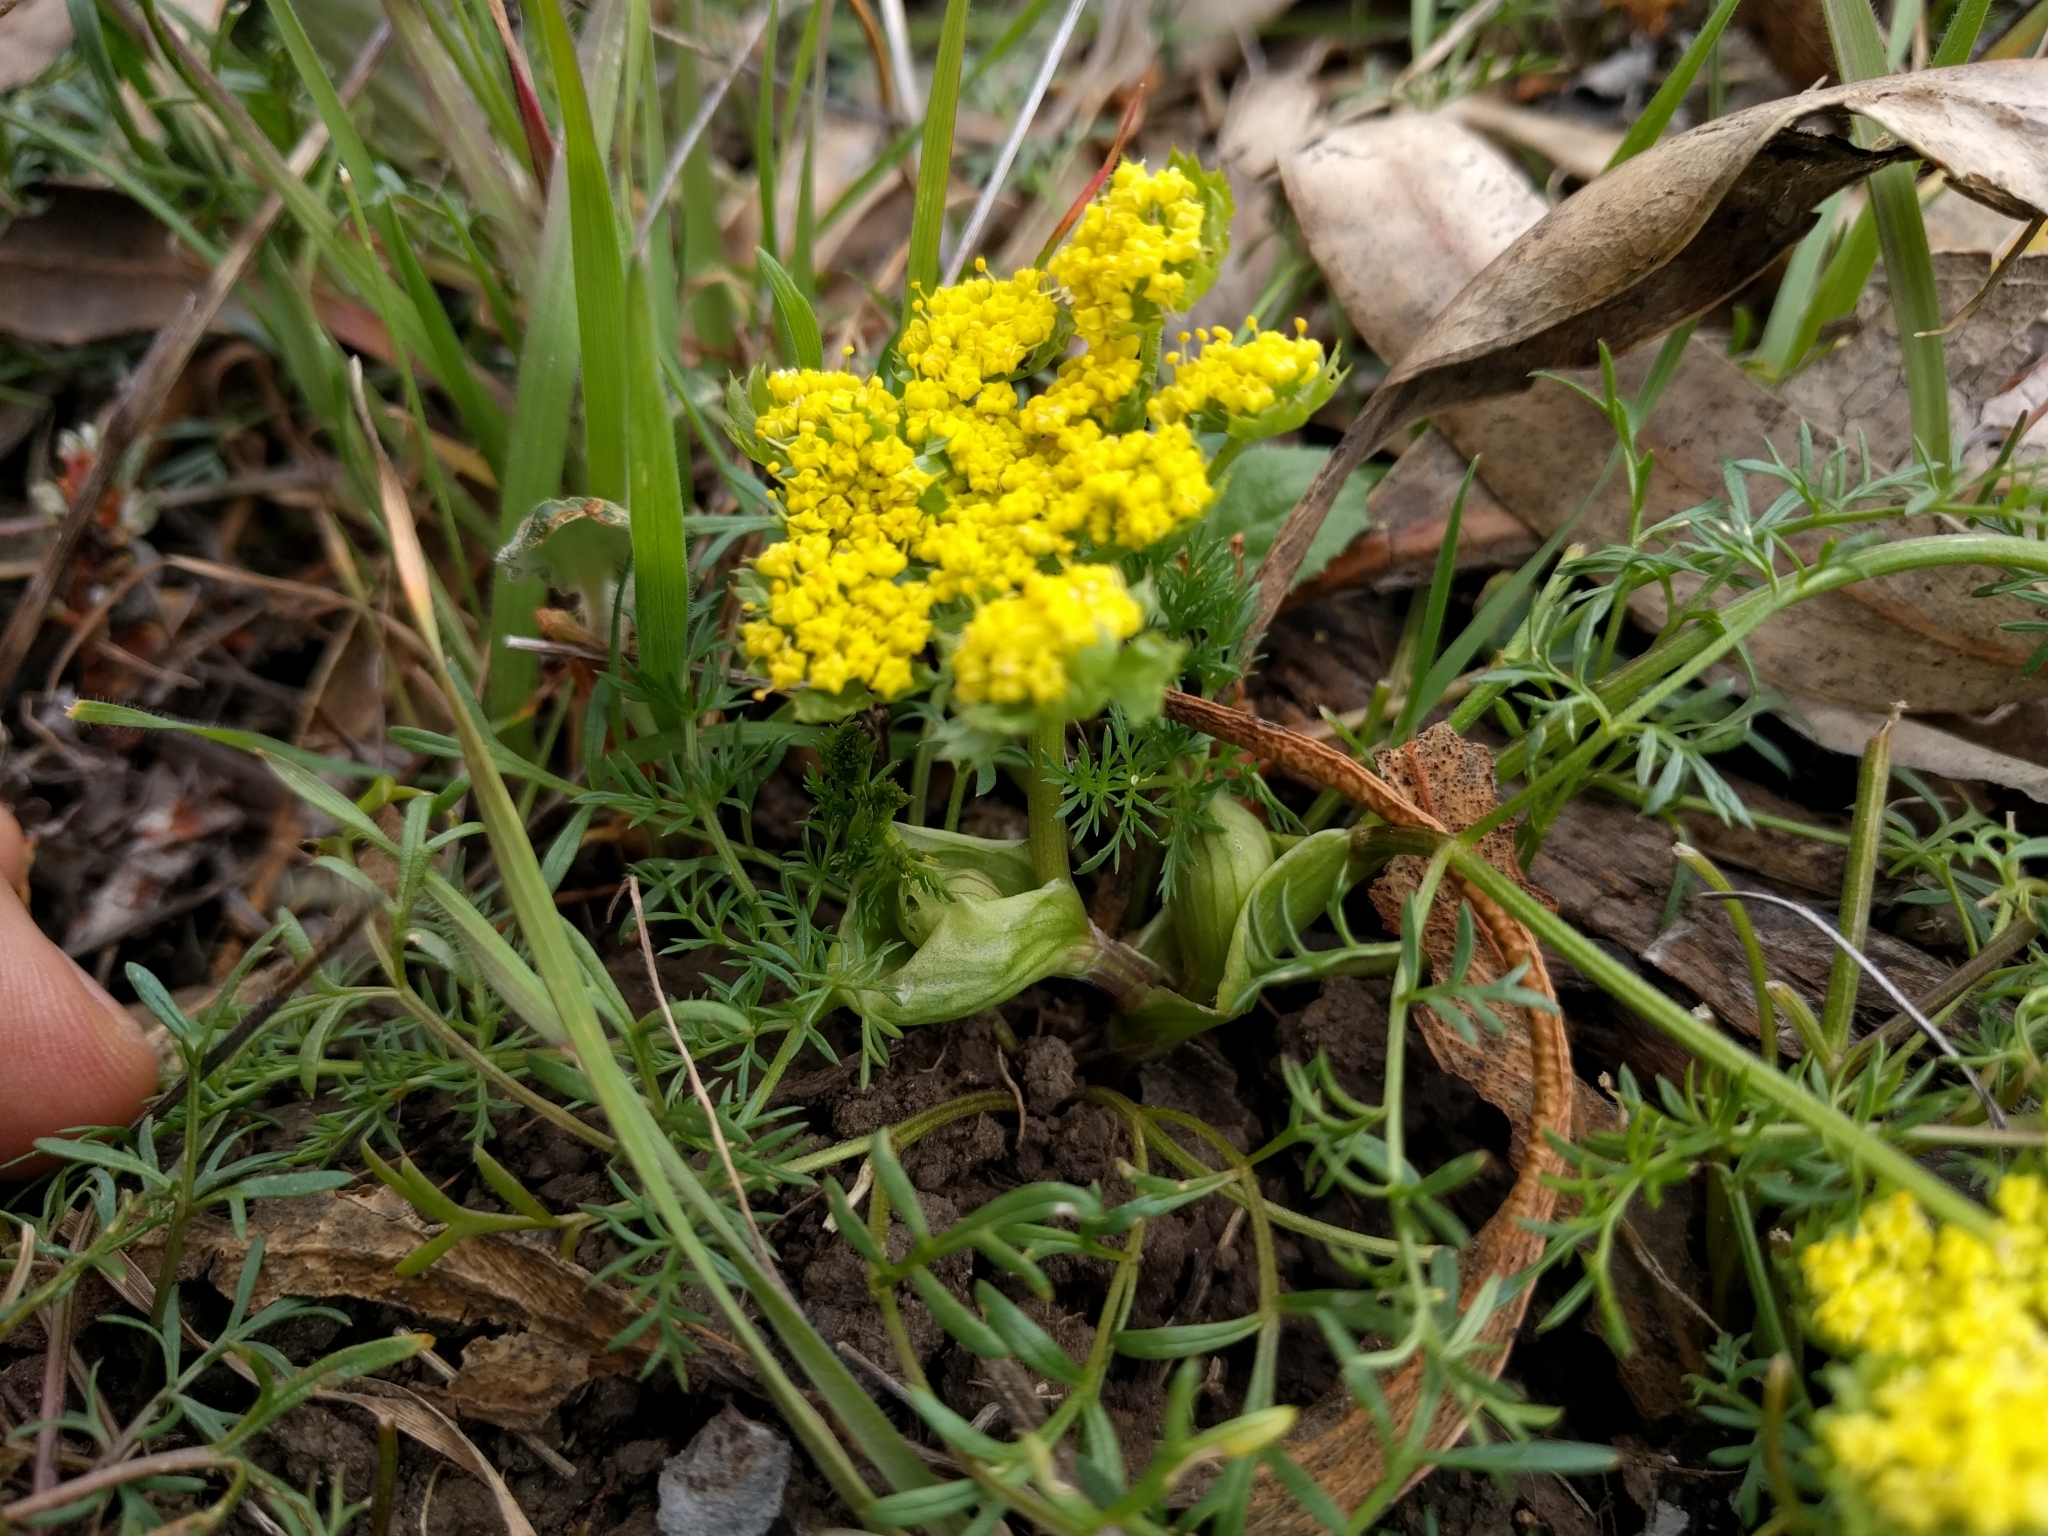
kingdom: Plantae
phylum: Tracheophyta
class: Magnoliopsida
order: Apiales
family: Apiaceae
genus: Lomatium
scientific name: Lomatium utriculatum
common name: Fine-leaf desert-parsley
